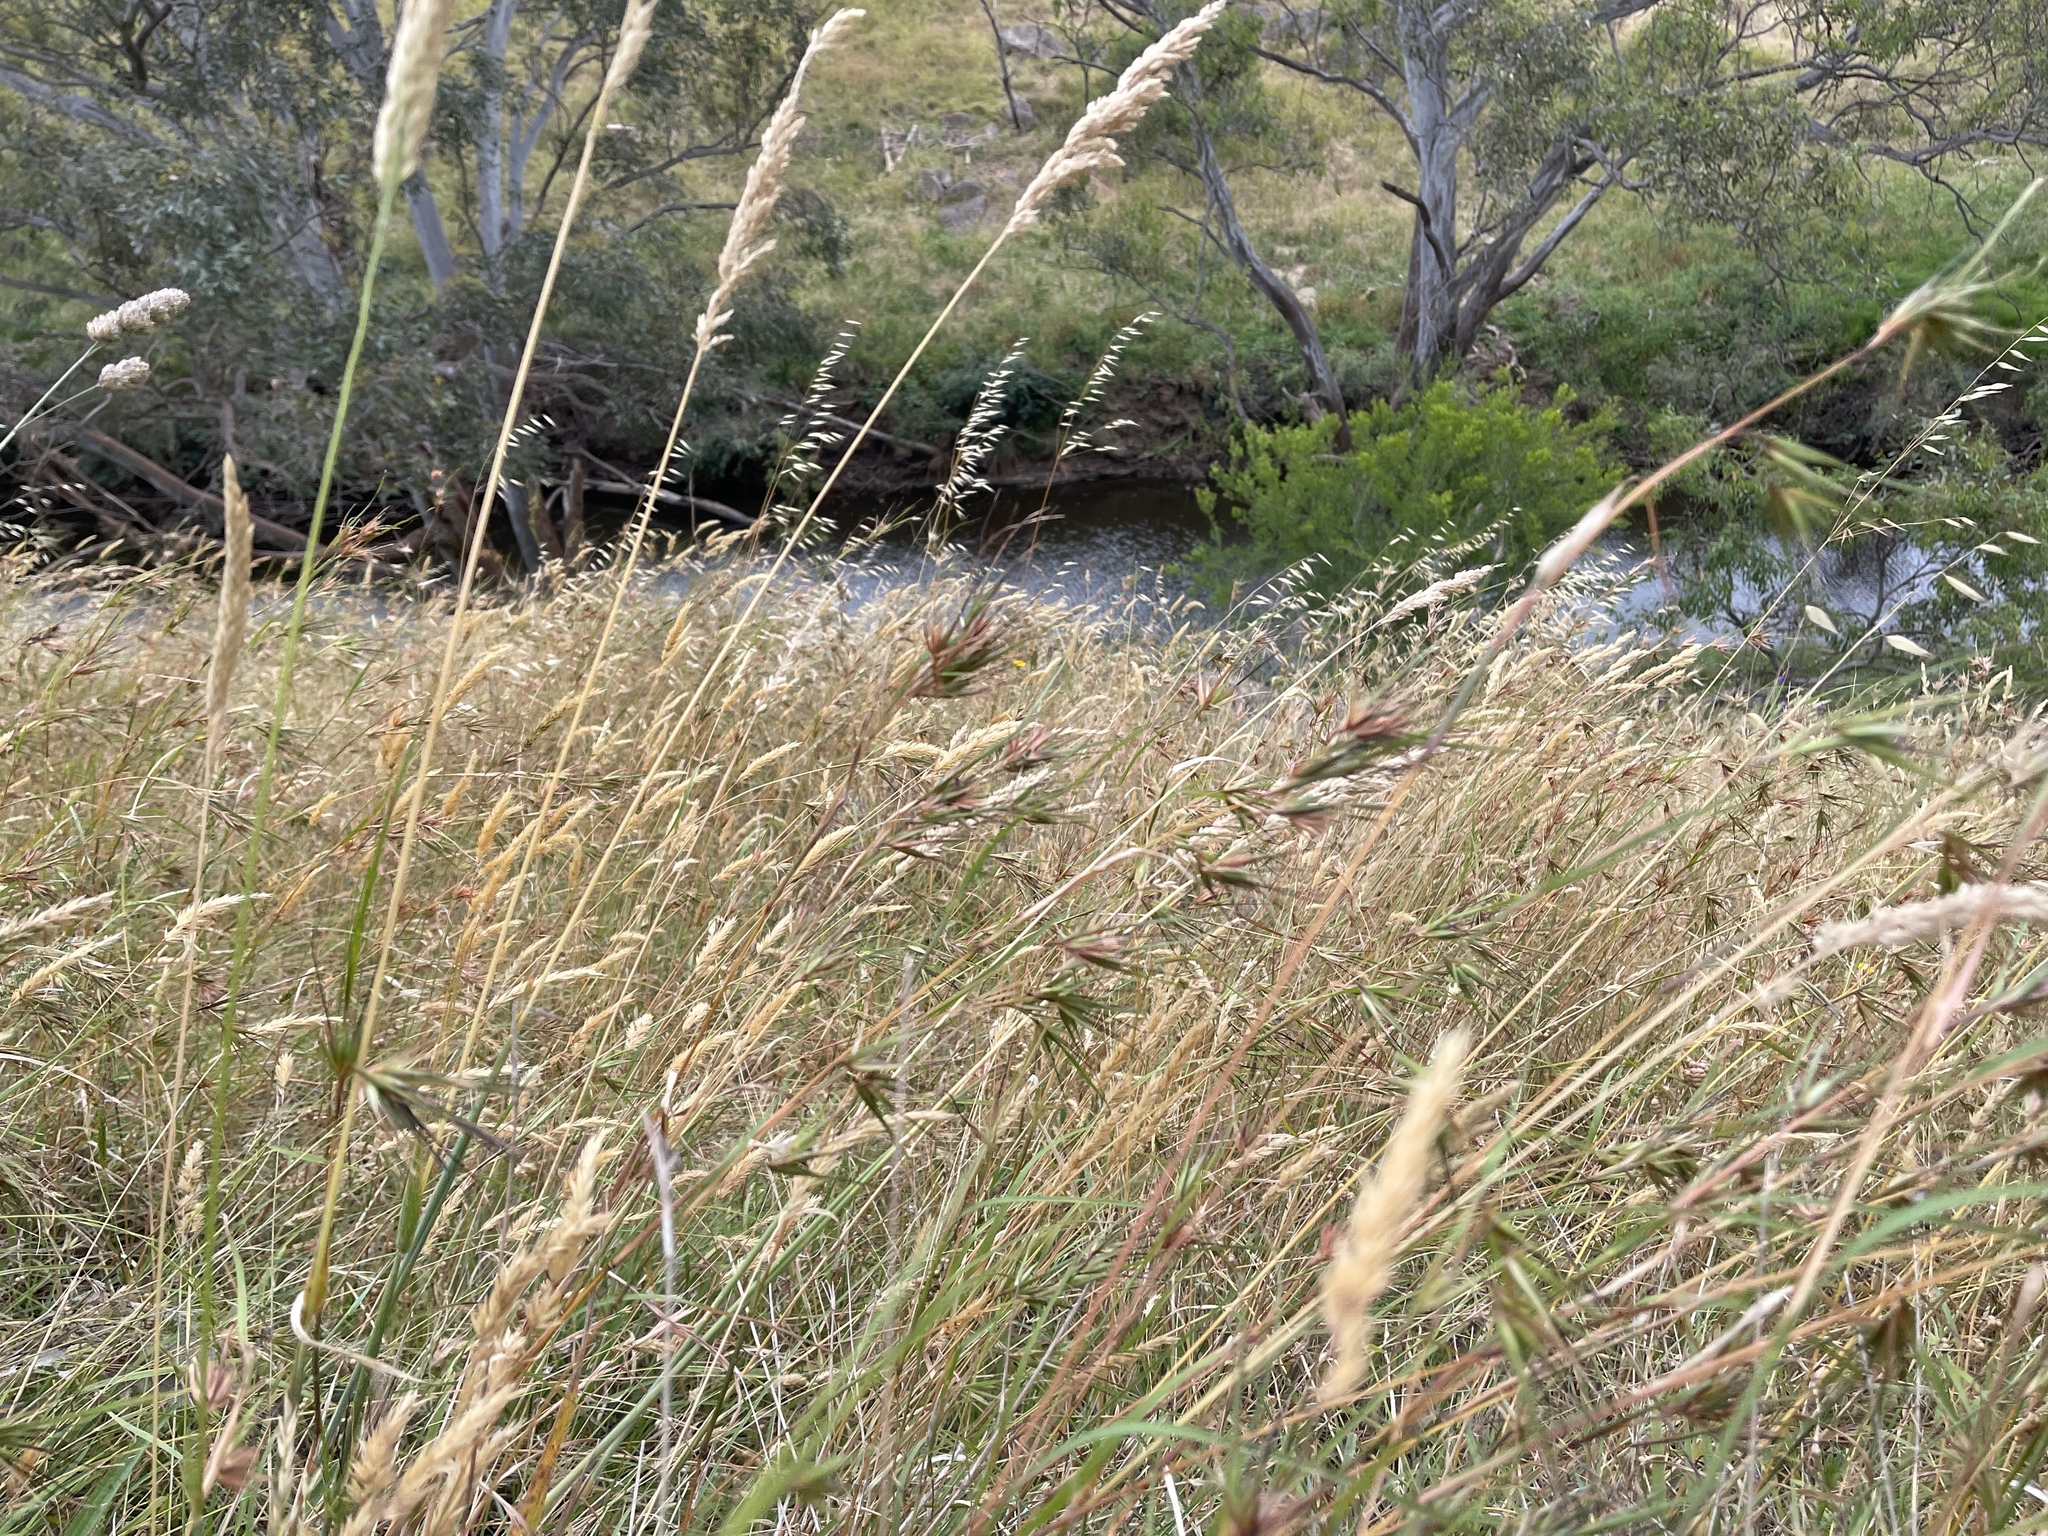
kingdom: Plantae
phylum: Tracheophyta
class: Liliopsida
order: Poales
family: Poaceae
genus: Themeda
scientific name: Themeda triandra
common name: Kangaroo grass
